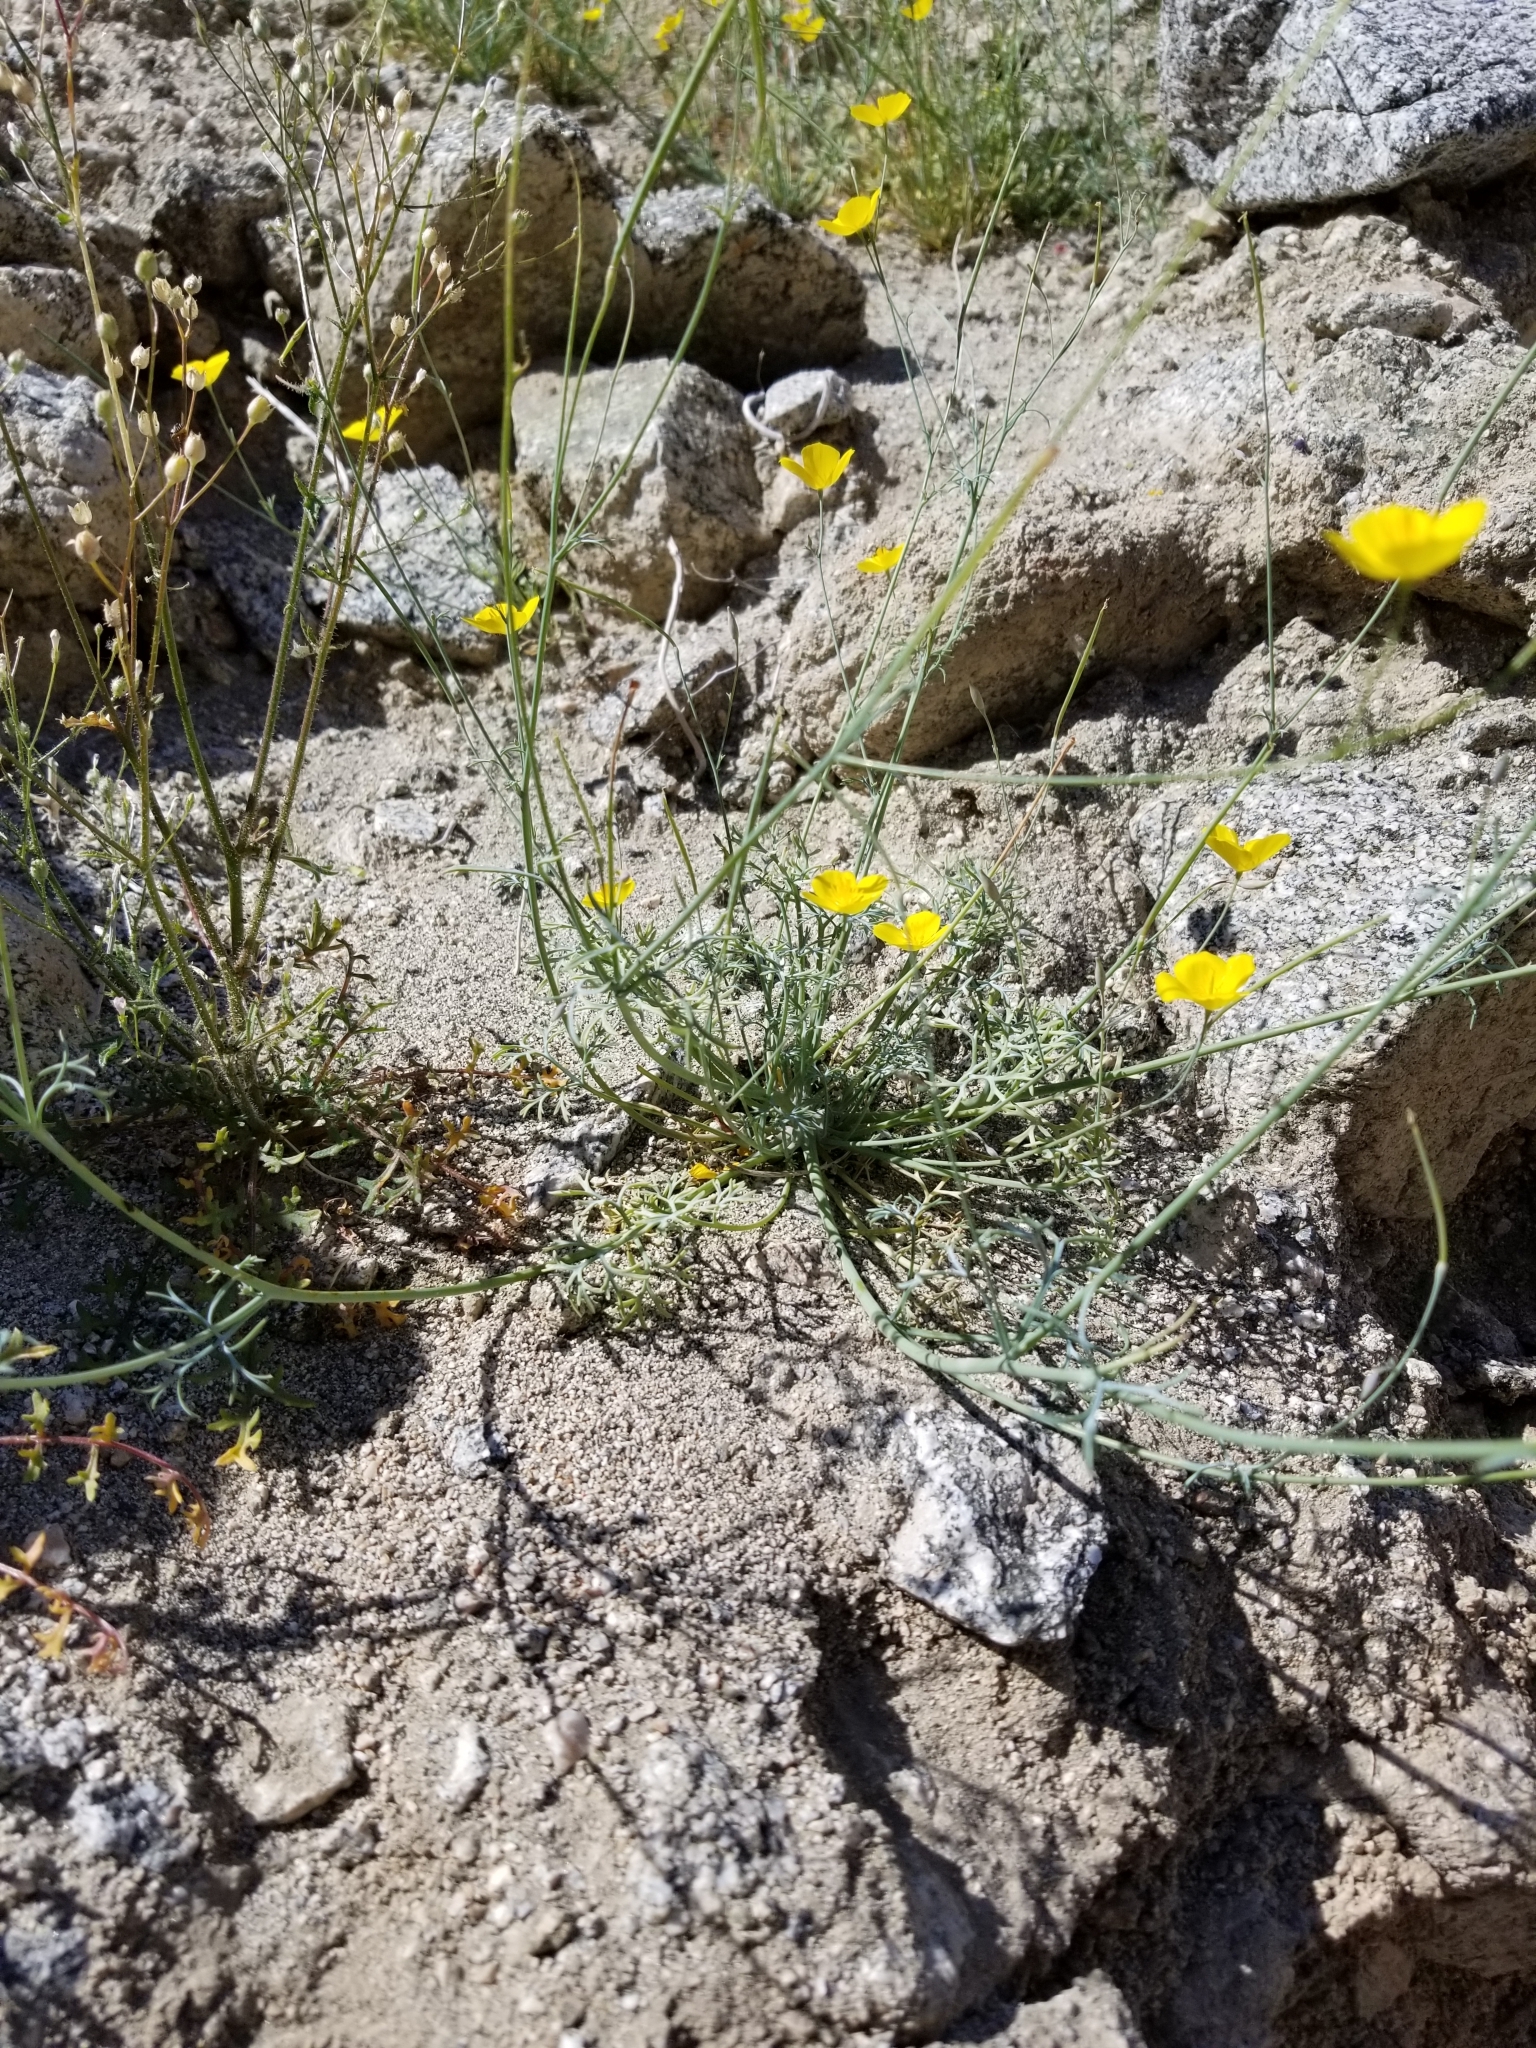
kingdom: Plantae
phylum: Tracheophyta
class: Magnoliopsida
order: Ranunculales
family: Papaveraceae
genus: Eschscholzia
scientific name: Eschscholzia parishii
